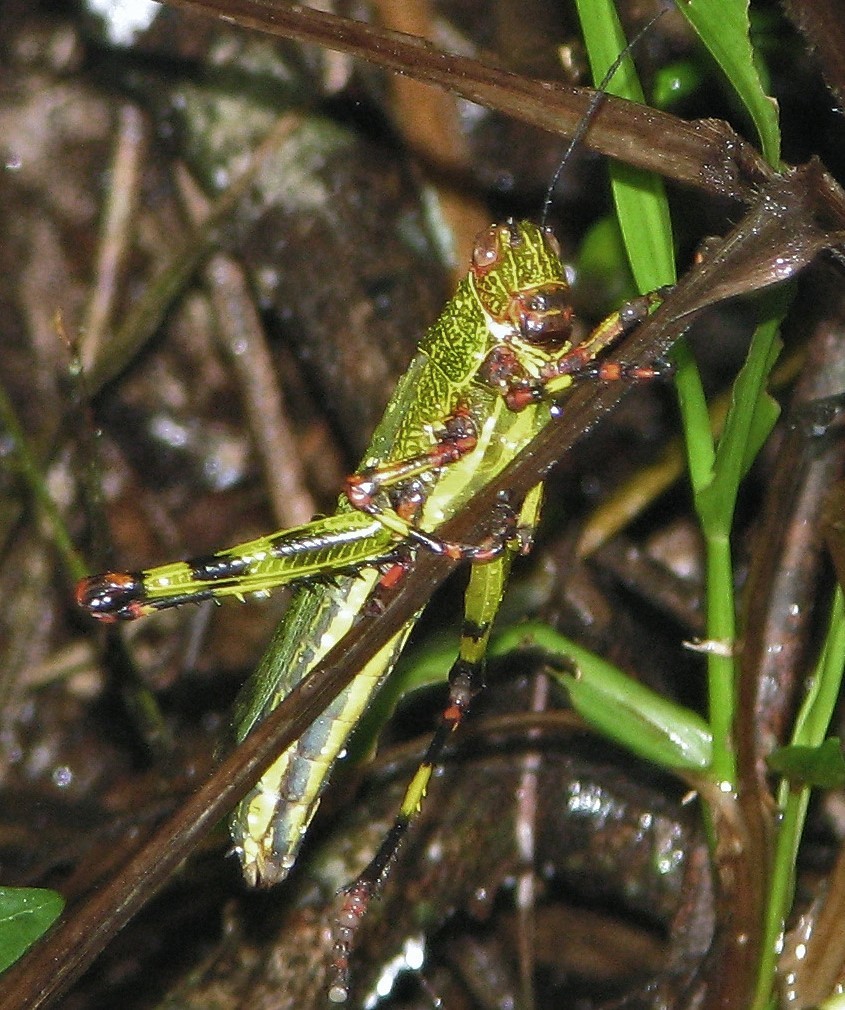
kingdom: Animalia
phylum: Arthropoda
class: Insecta
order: Orthoptera
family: Romaleidae
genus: Zoniopoda
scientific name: Zoniopoda tarsata
